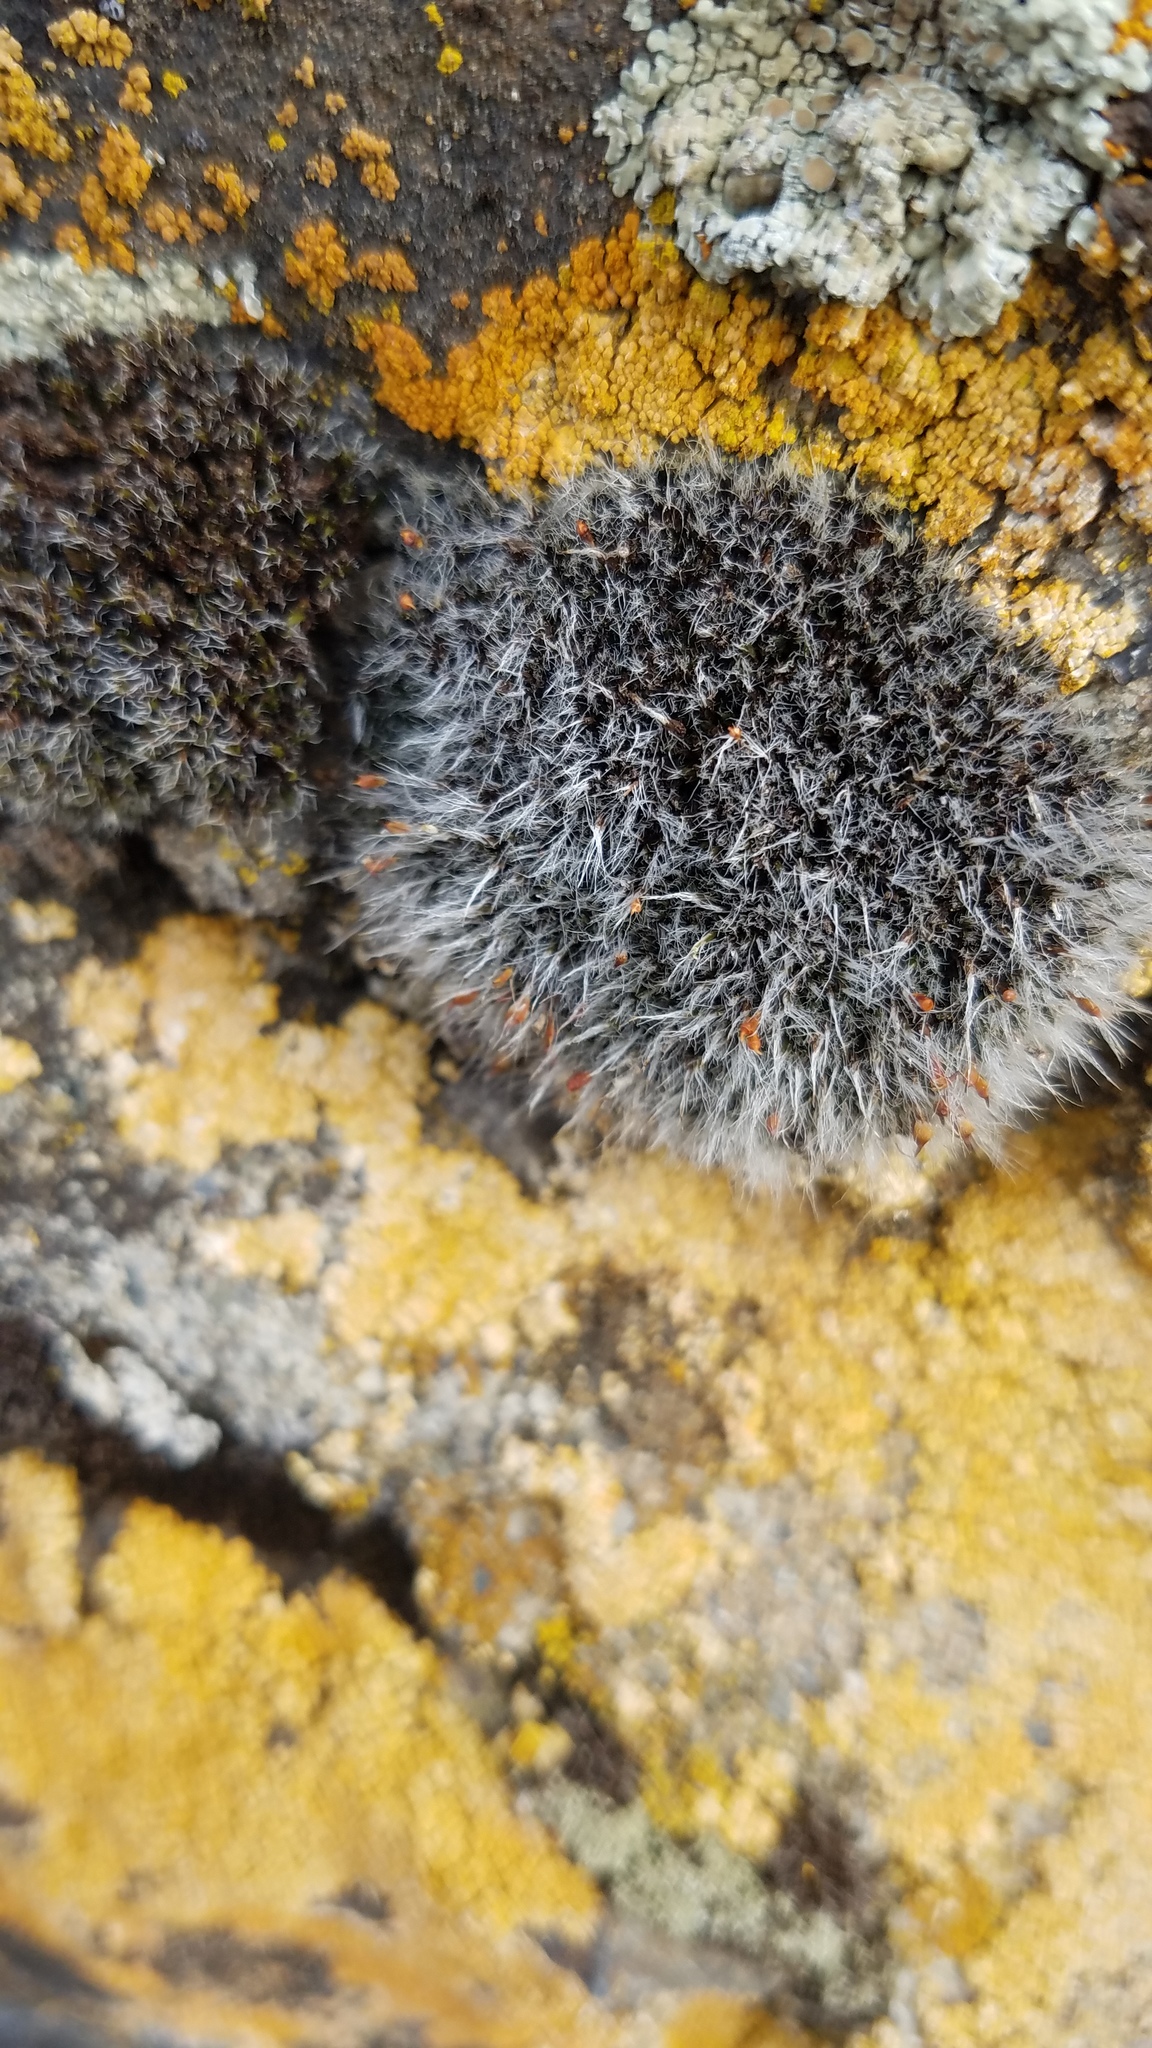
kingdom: Plantae
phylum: Bryophyta
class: Bryopsida
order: Grimmiales
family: Grimmiaceae
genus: Grimmia
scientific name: Grimmia pulvinata
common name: Grey-cushioned grimmia
